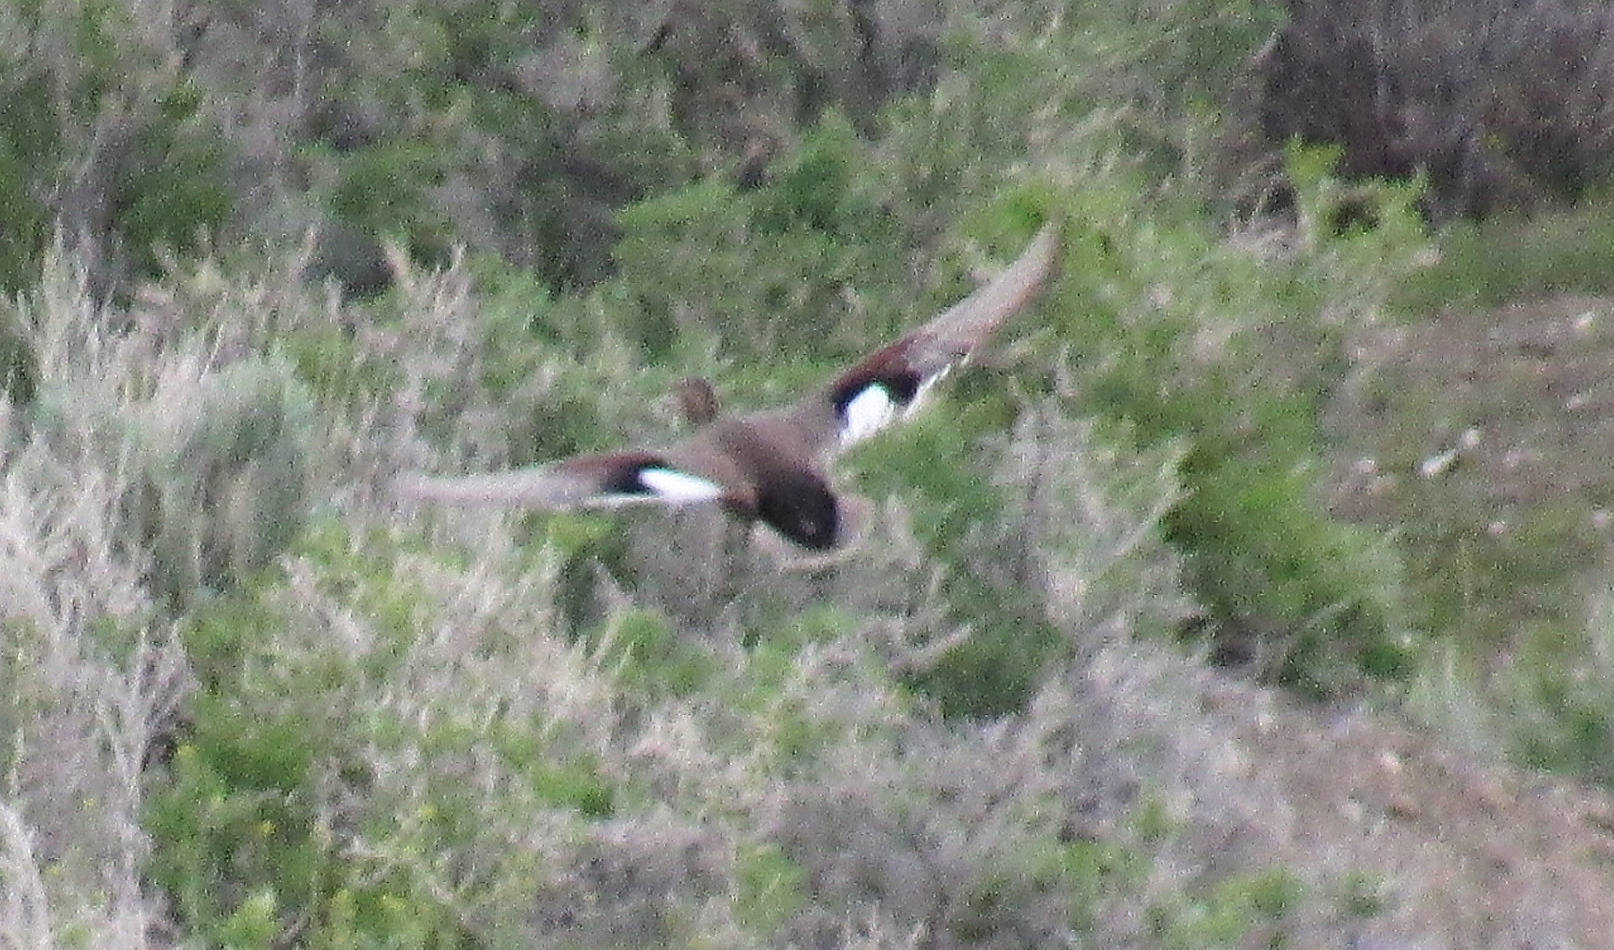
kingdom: Animalia
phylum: Chordata
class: Aves
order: Anseriformes
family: Anatidae
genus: Mareca
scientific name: Mareca strepera
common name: Gadwall
